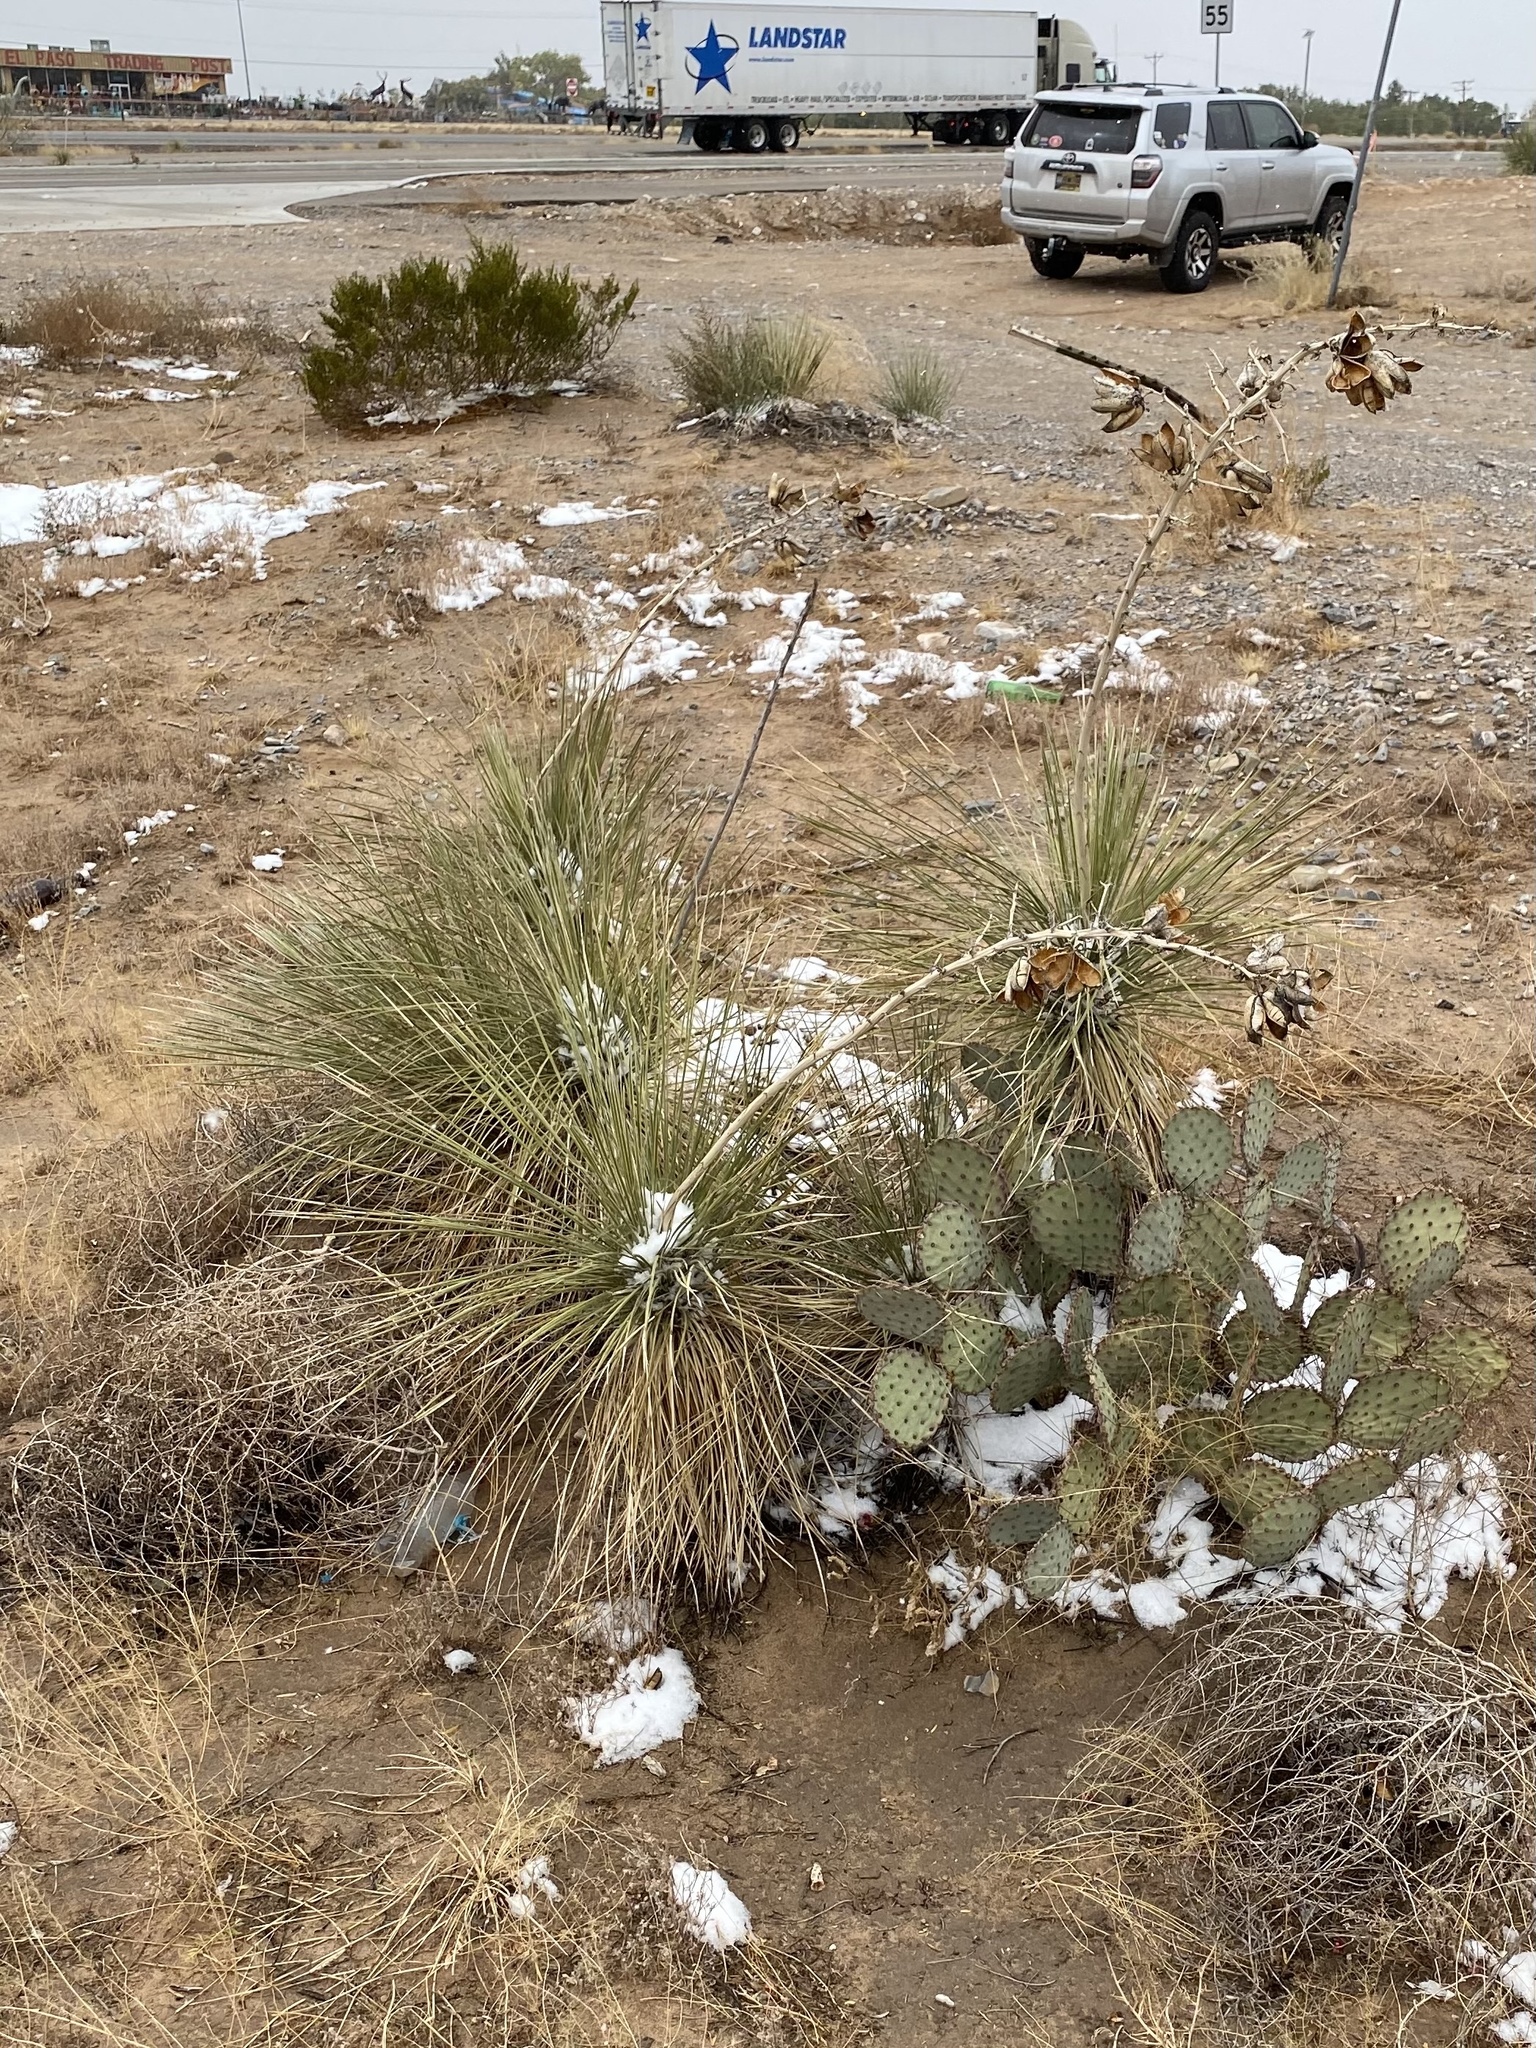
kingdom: Plantae
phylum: Tracheophyta
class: Liliopsida
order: Asparagales
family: Asparagaceae
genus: Yucca
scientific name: Yucca elata
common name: Palmella
